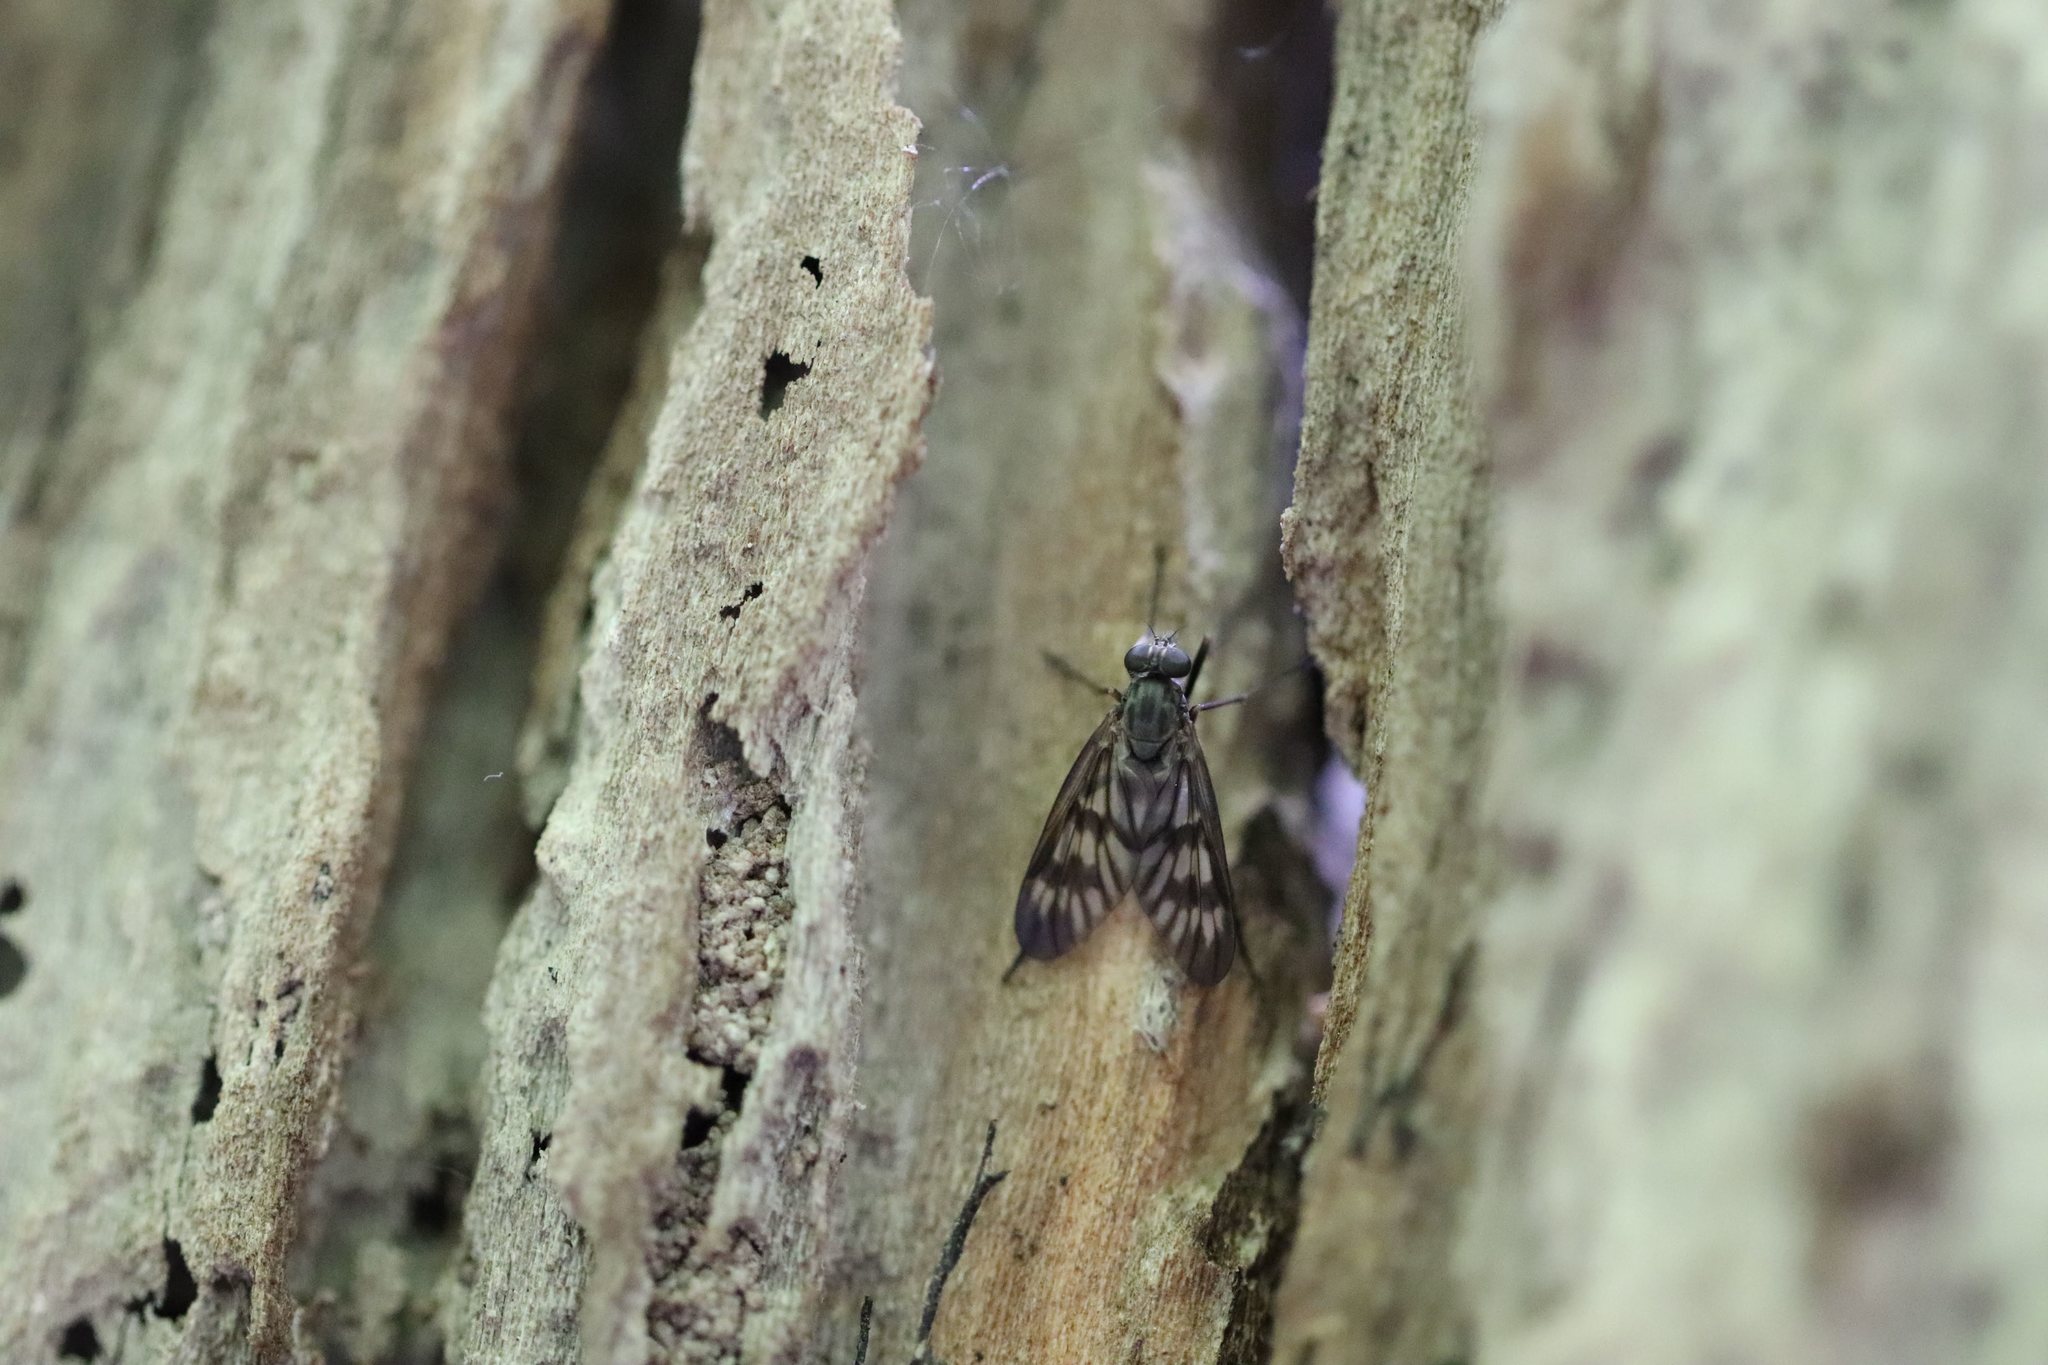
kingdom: Animalia
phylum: Arthropoda
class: Insecta
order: Diptera
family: Rhagionidae
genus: Rhagio
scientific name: Rhagio mystaceus
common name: Common snipe fly
